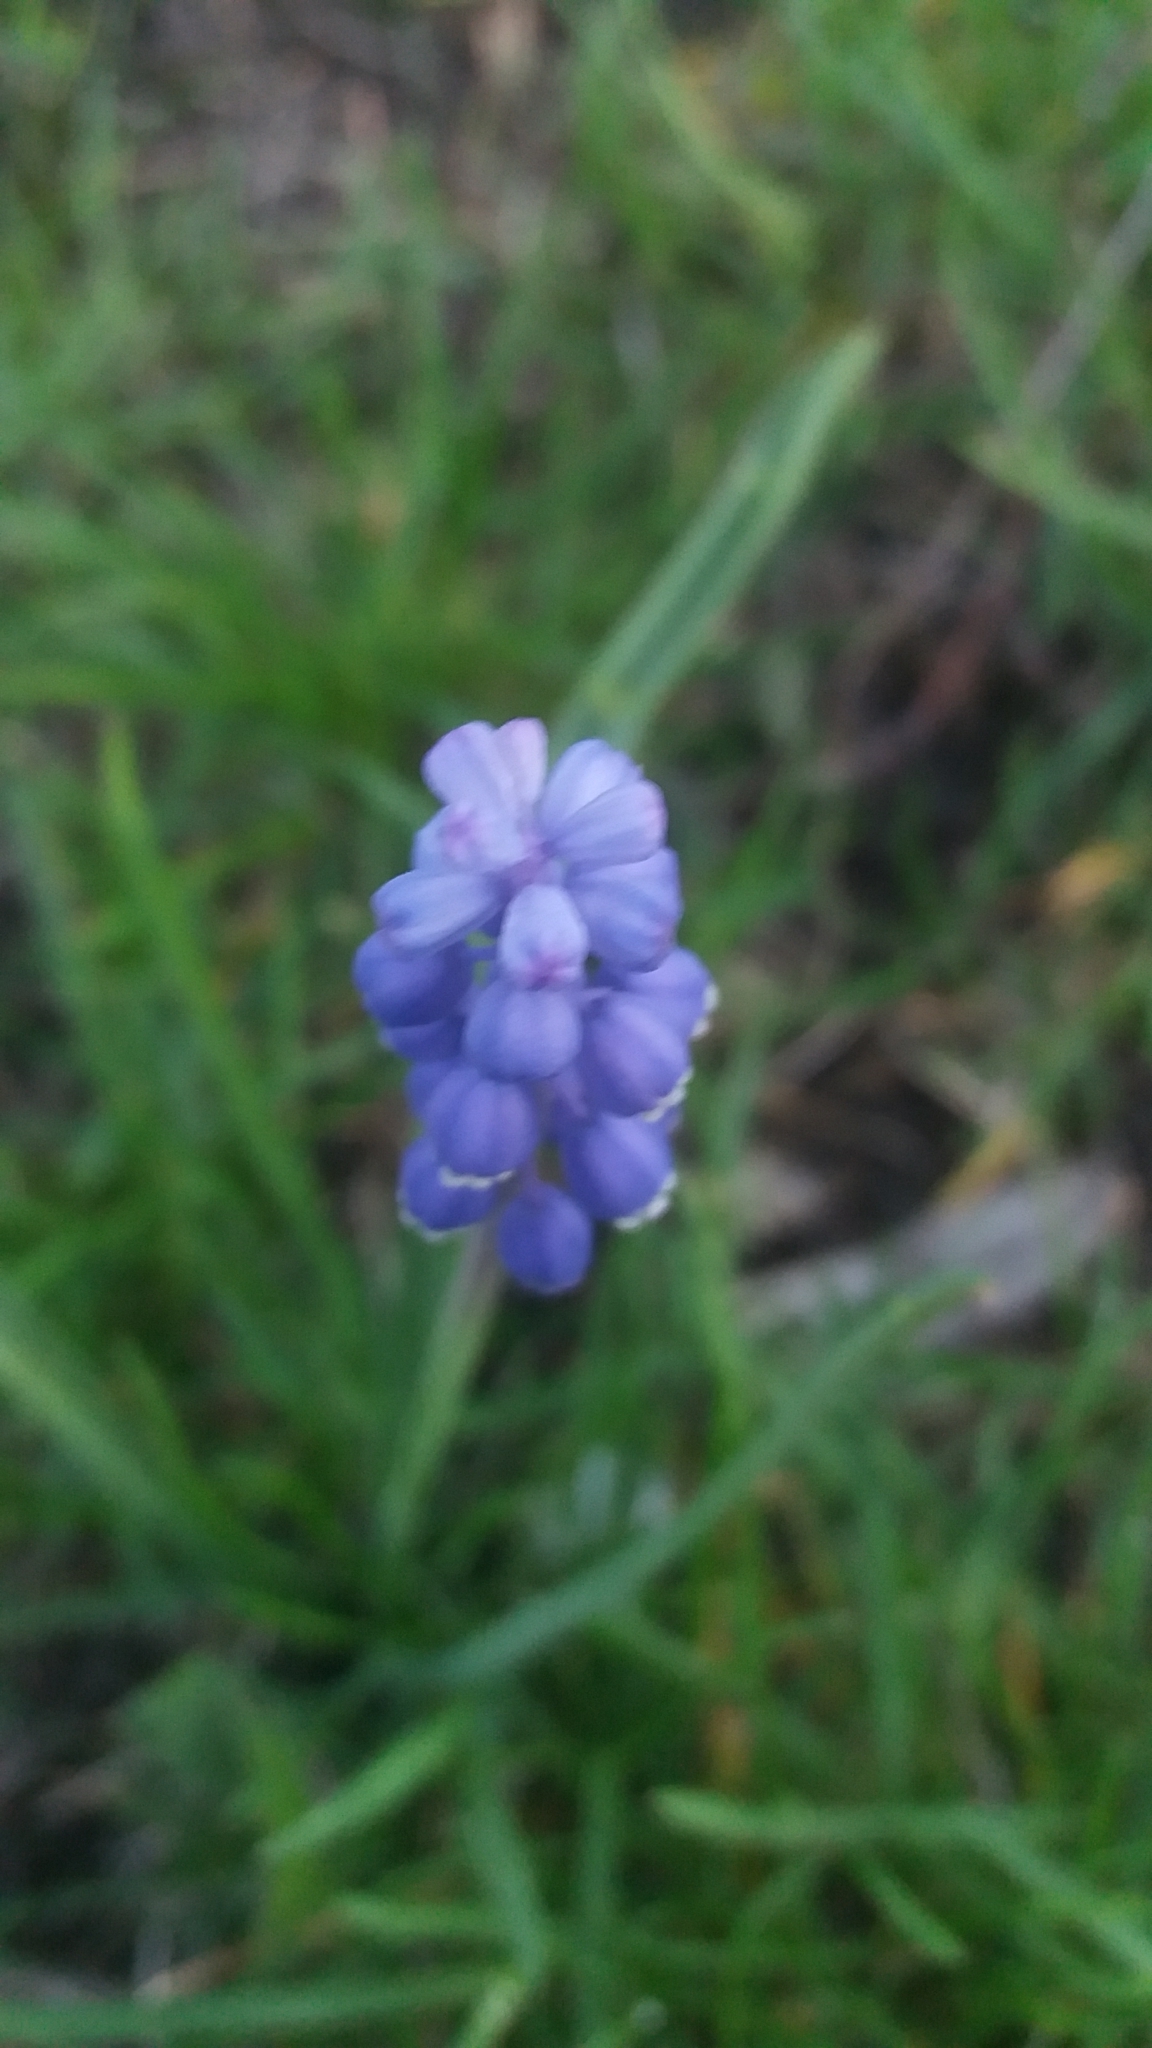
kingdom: Plantae
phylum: Tracheophyta
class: Liliopsida
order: Asparagales
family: Asparagaceae
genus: Muscari
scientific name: Muscari
